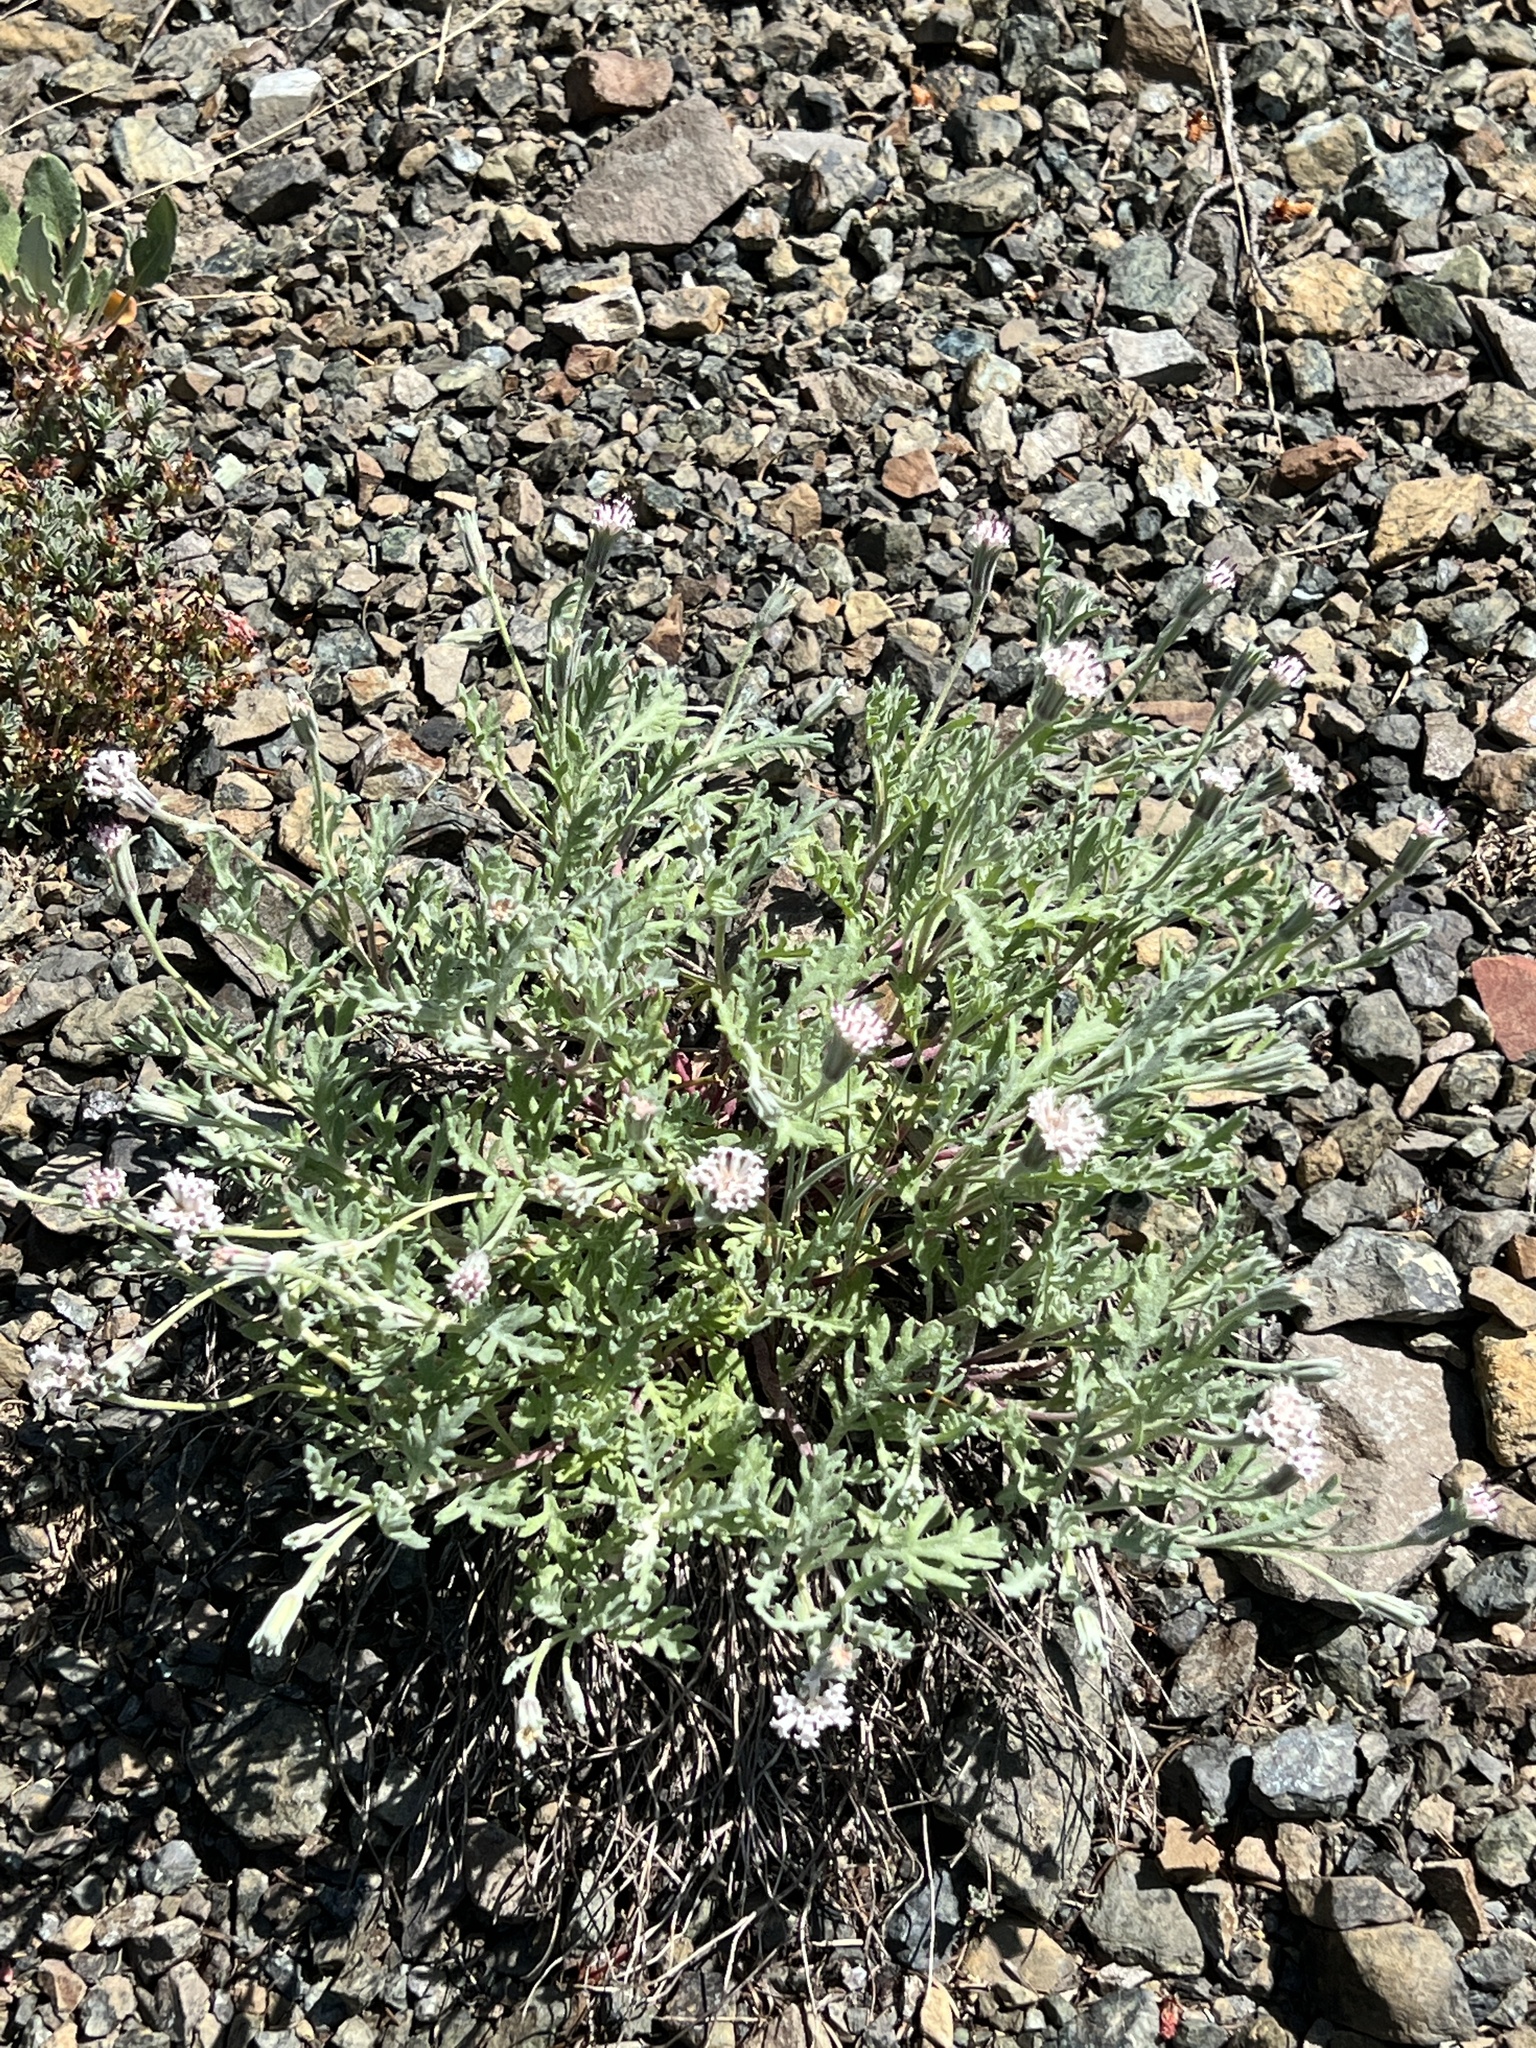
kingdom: Plantae
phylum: Tracheophyta
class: Magnoliopsida
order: Asterales
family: Asteraceae
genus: Chaenactis
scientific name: Chaenactis thompsonii
